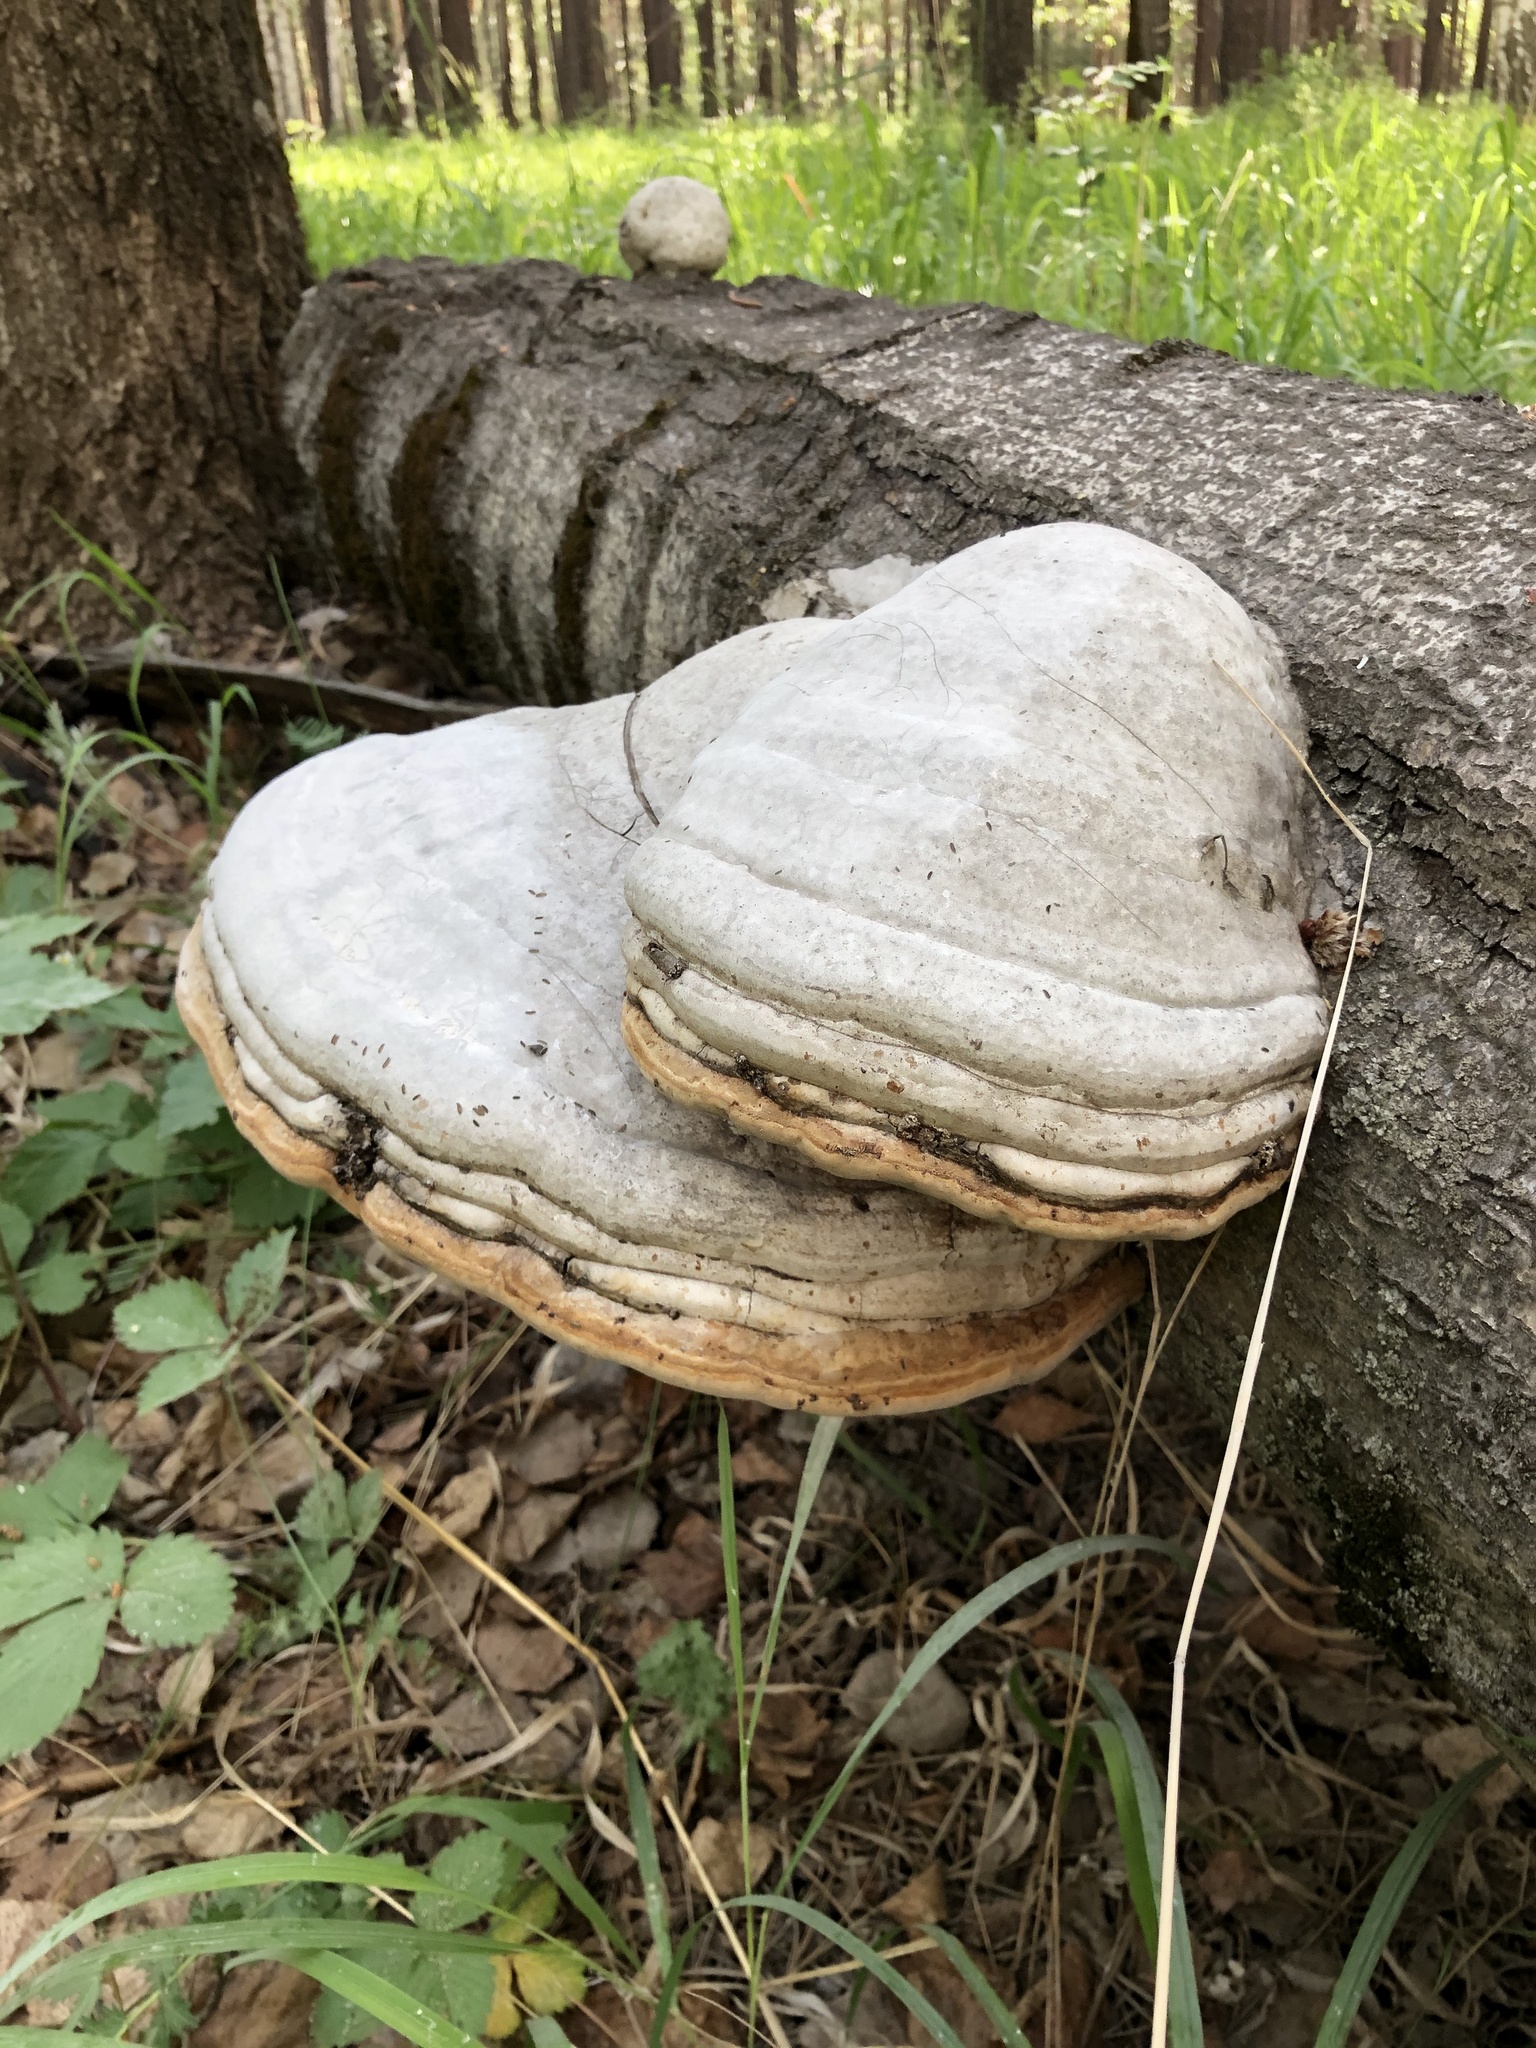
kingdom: Fungi
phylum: Basidiomycota
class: Agaricomycetes
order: Polyporales
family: Polyporaceae
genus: Fomes
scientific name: Fomes fomentarius
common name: Hoof fungus
